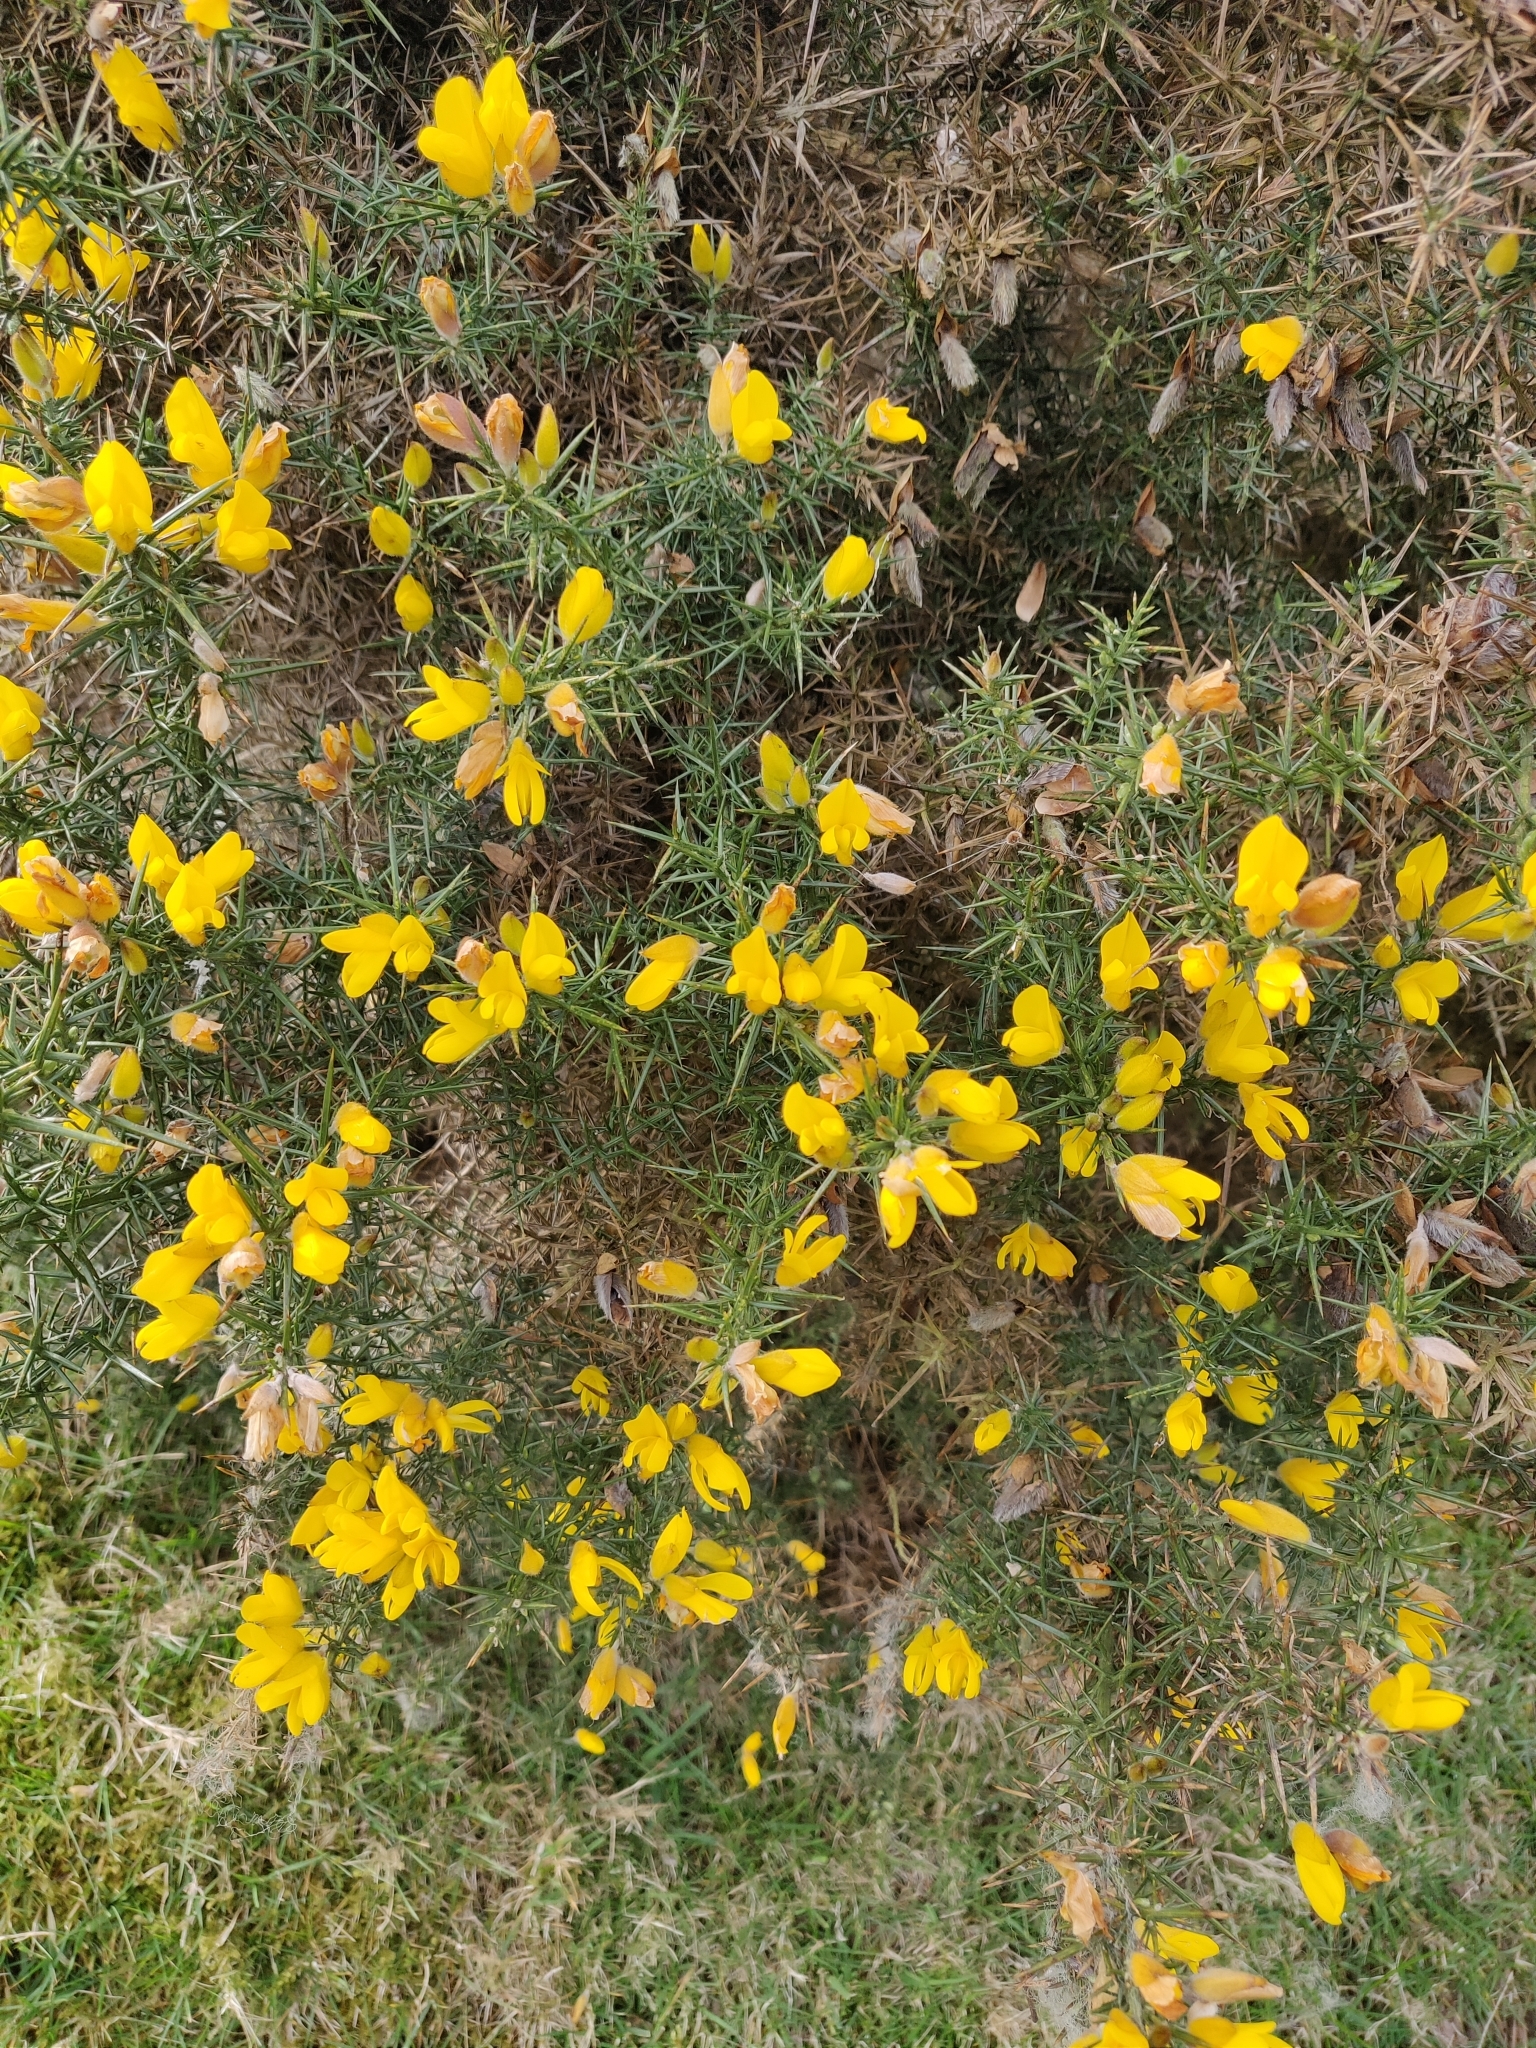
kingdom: Plantae
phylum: Tracheophyta
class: Magnoliopsida
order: Fabales
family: Fabaceae
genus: Ulex
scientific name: Ulex europaeus
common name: Common gorse
